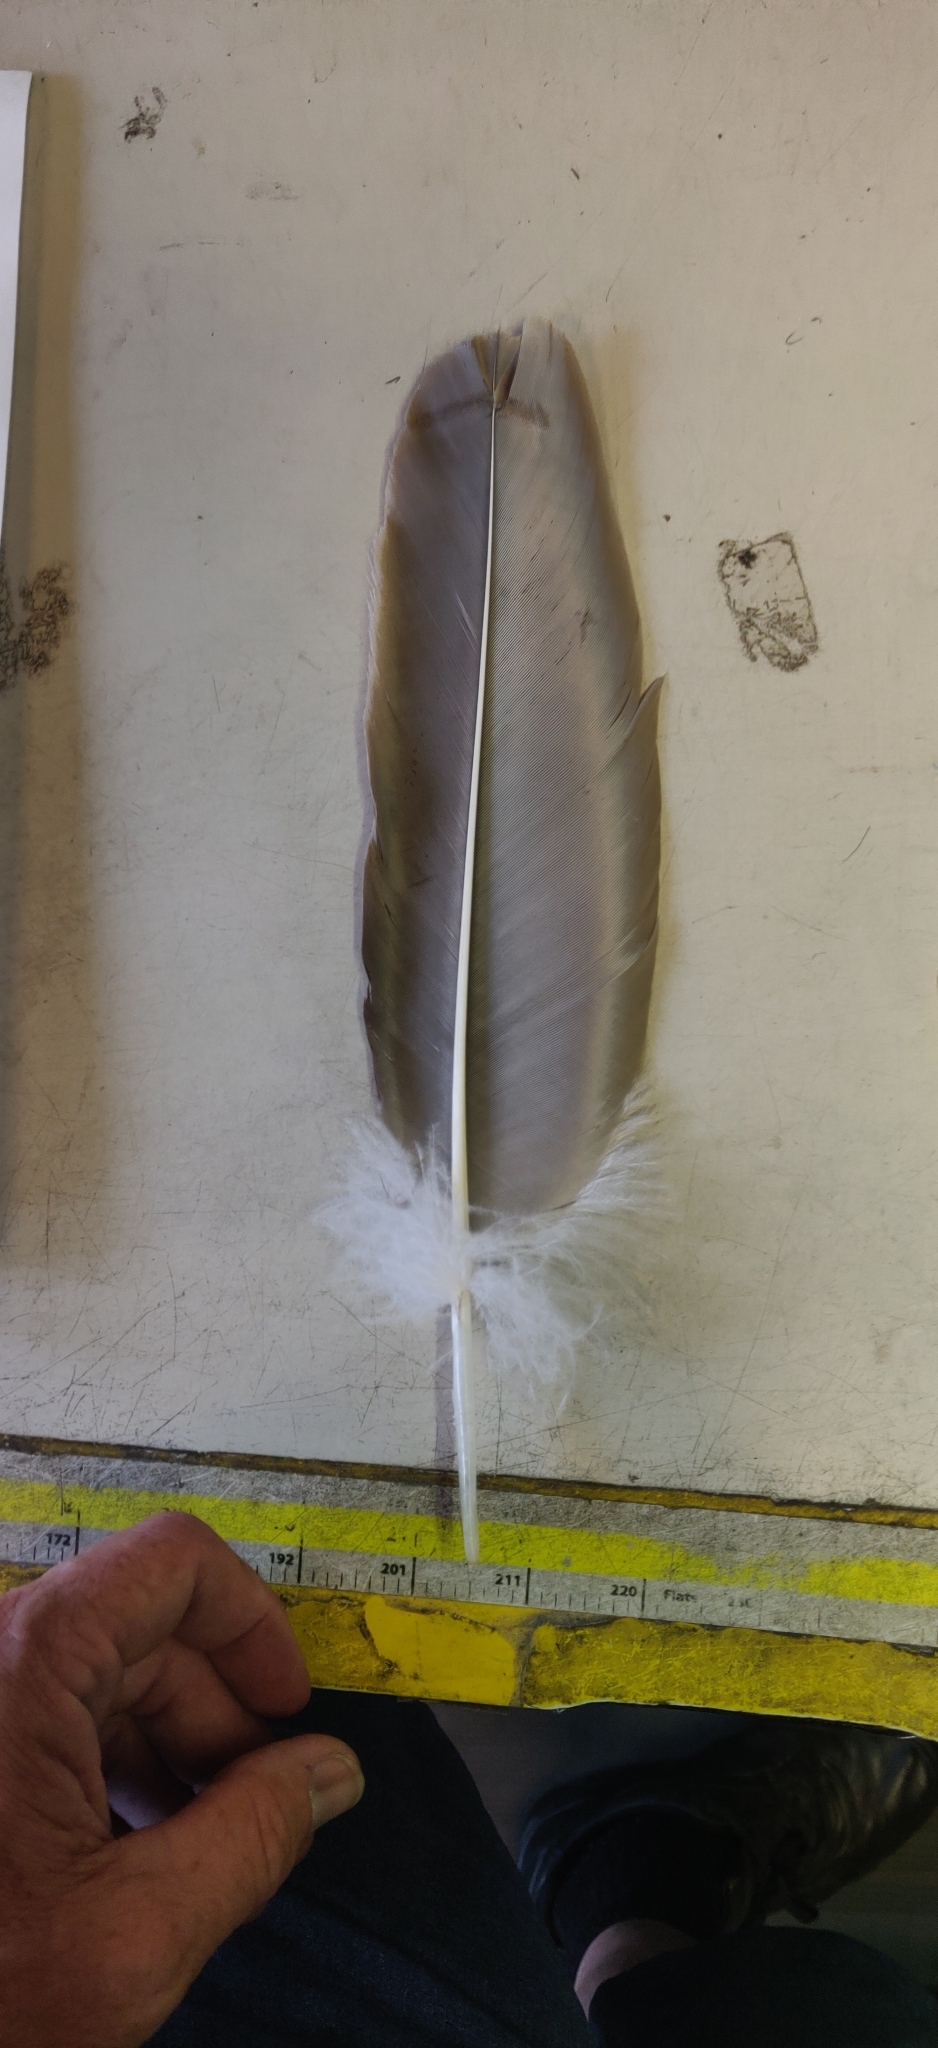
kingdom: Animalia
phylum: Chordata
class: Aves
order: Accipitriformes
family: Cathartidae
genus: Cathartes
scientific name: Cathartes aura
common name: Turkey vulture
